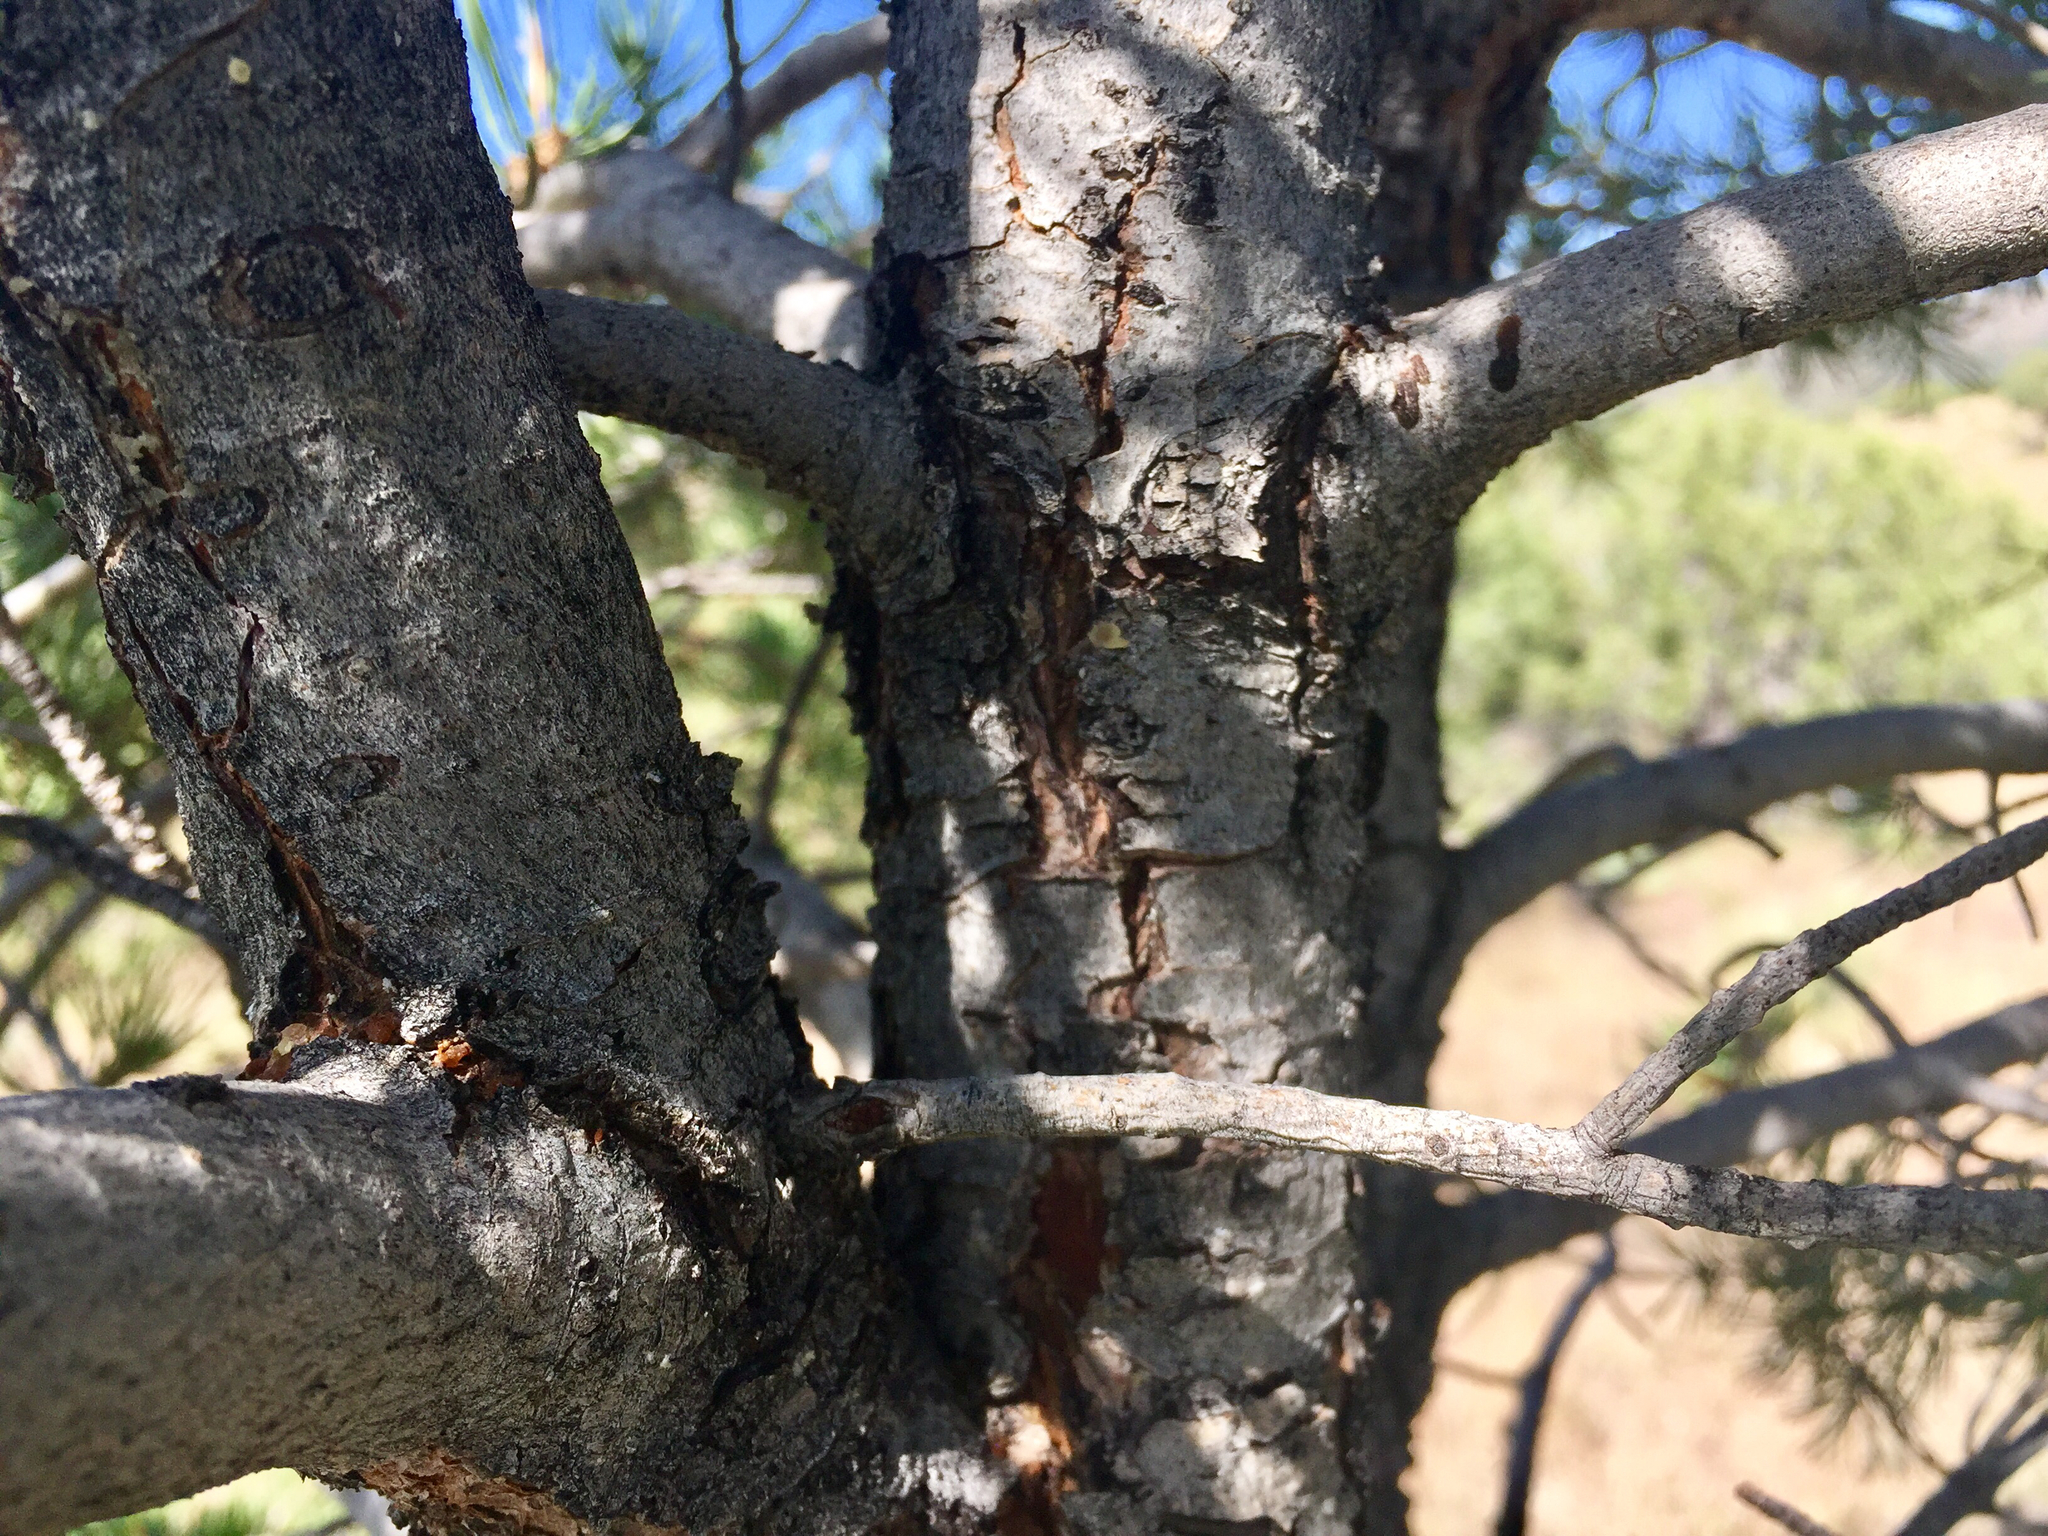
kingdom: Plantae
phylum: Tracheophyta
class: Pinopsida
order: Pinales
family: Pinaceae
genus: Pinus
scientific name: Pinus edulis
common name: Colorado pinyon
